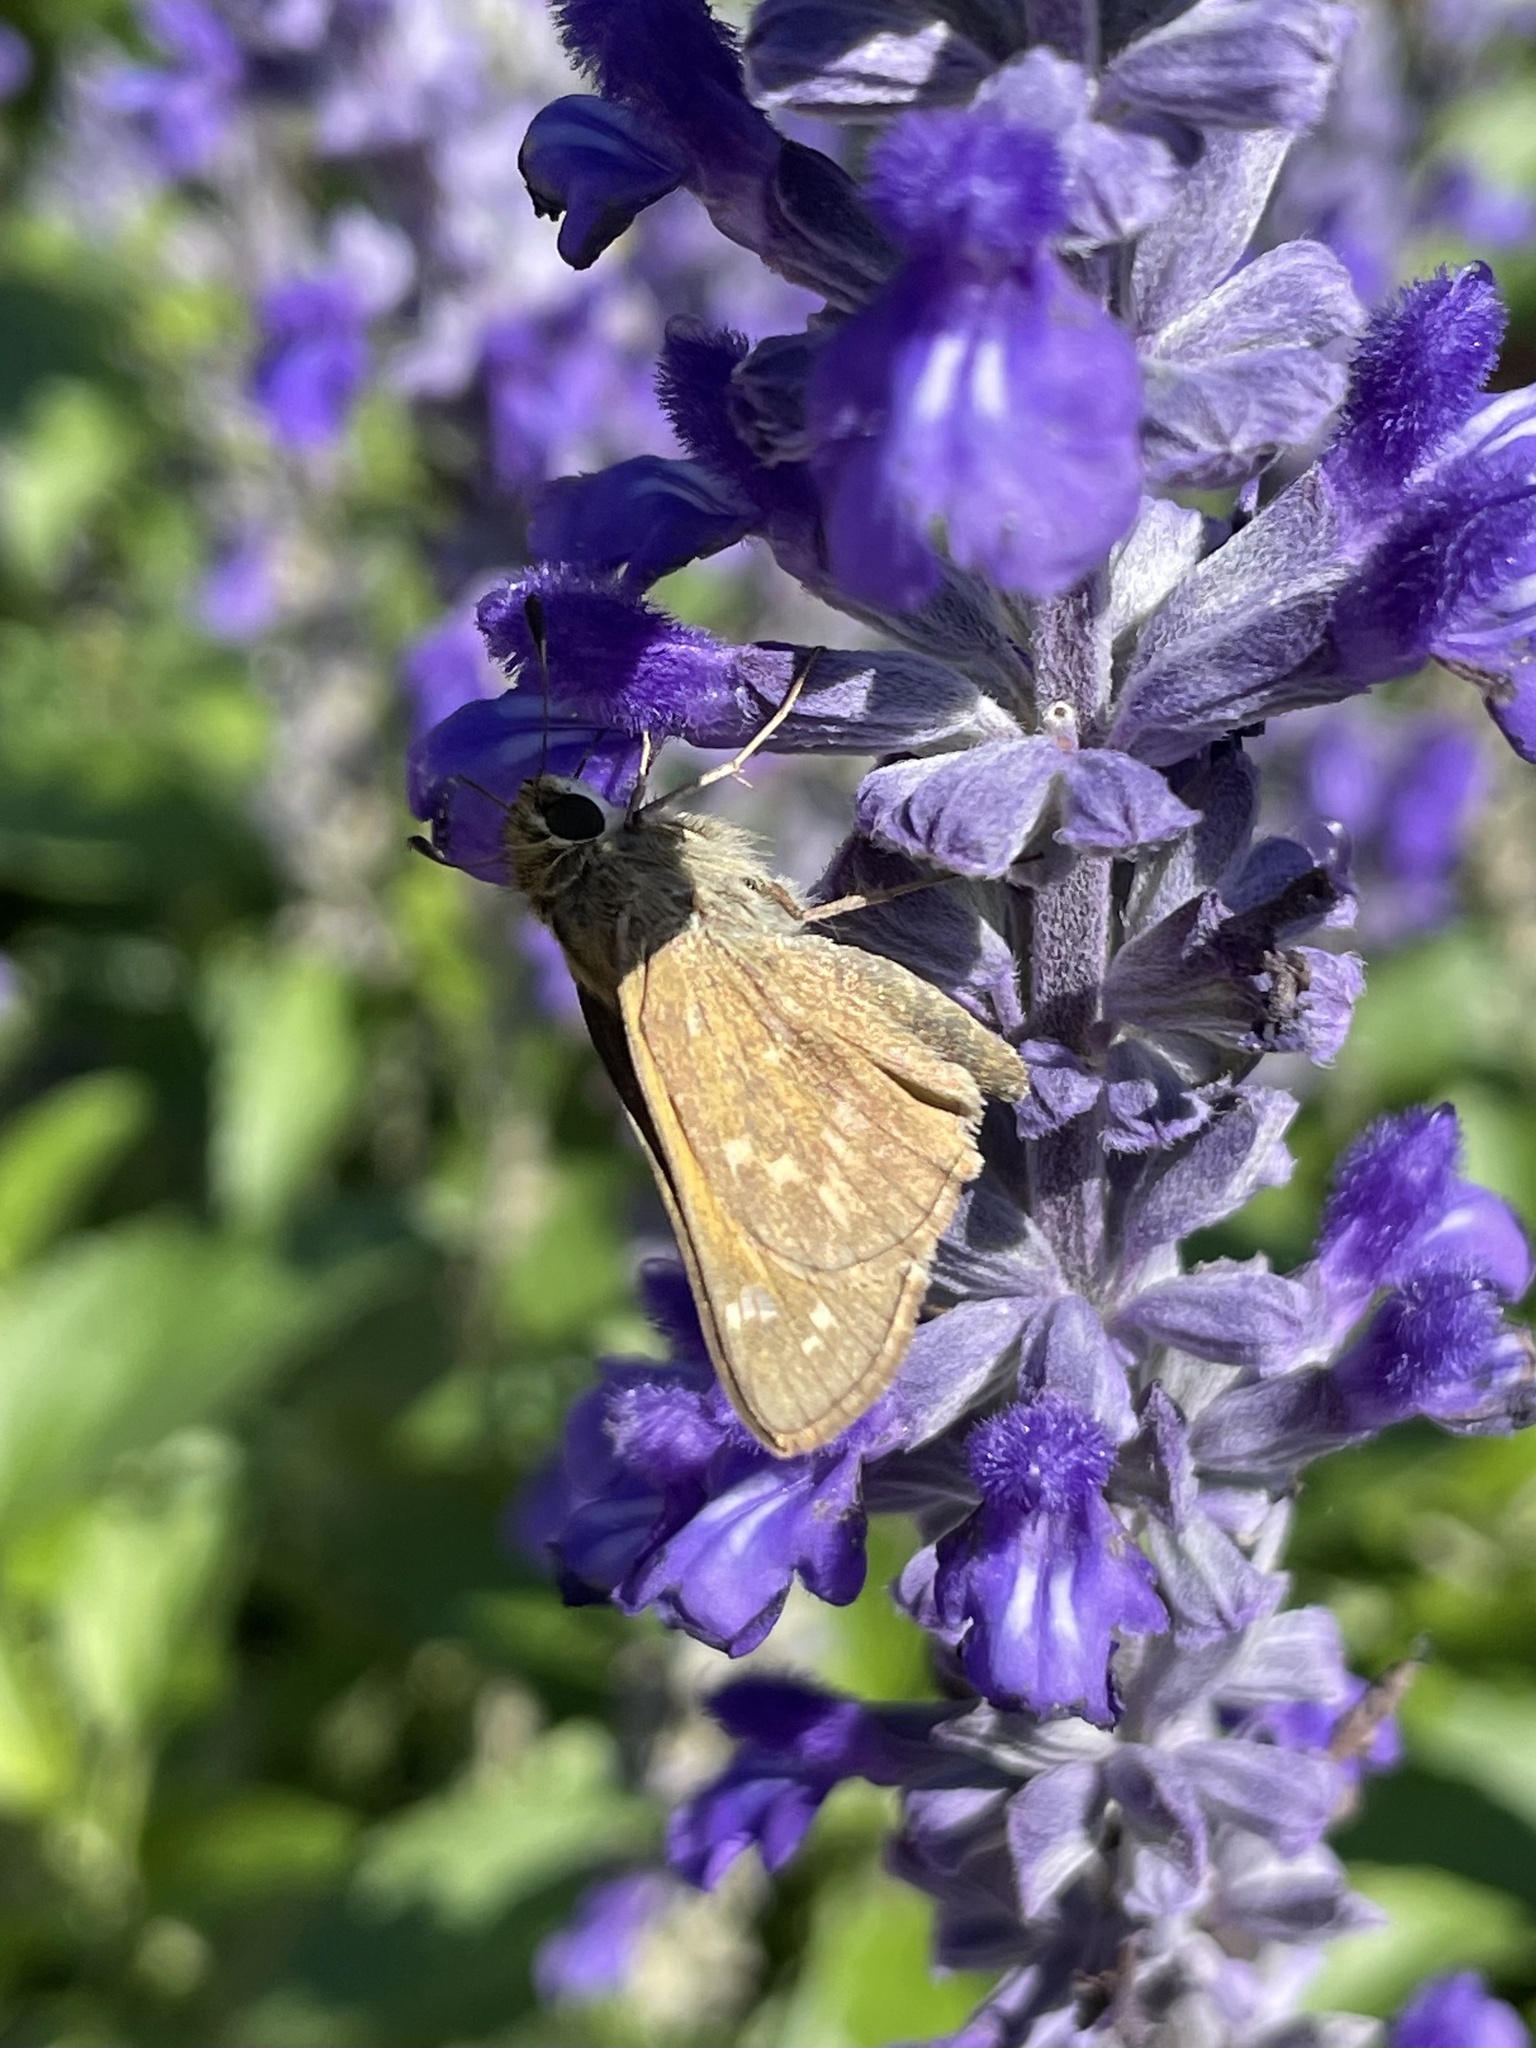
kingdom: Animalia
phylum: Arthropoda
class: Insecta
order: Lepidoptera
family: Hesperiidae
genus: Atalopedes
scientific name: Atalopedes
